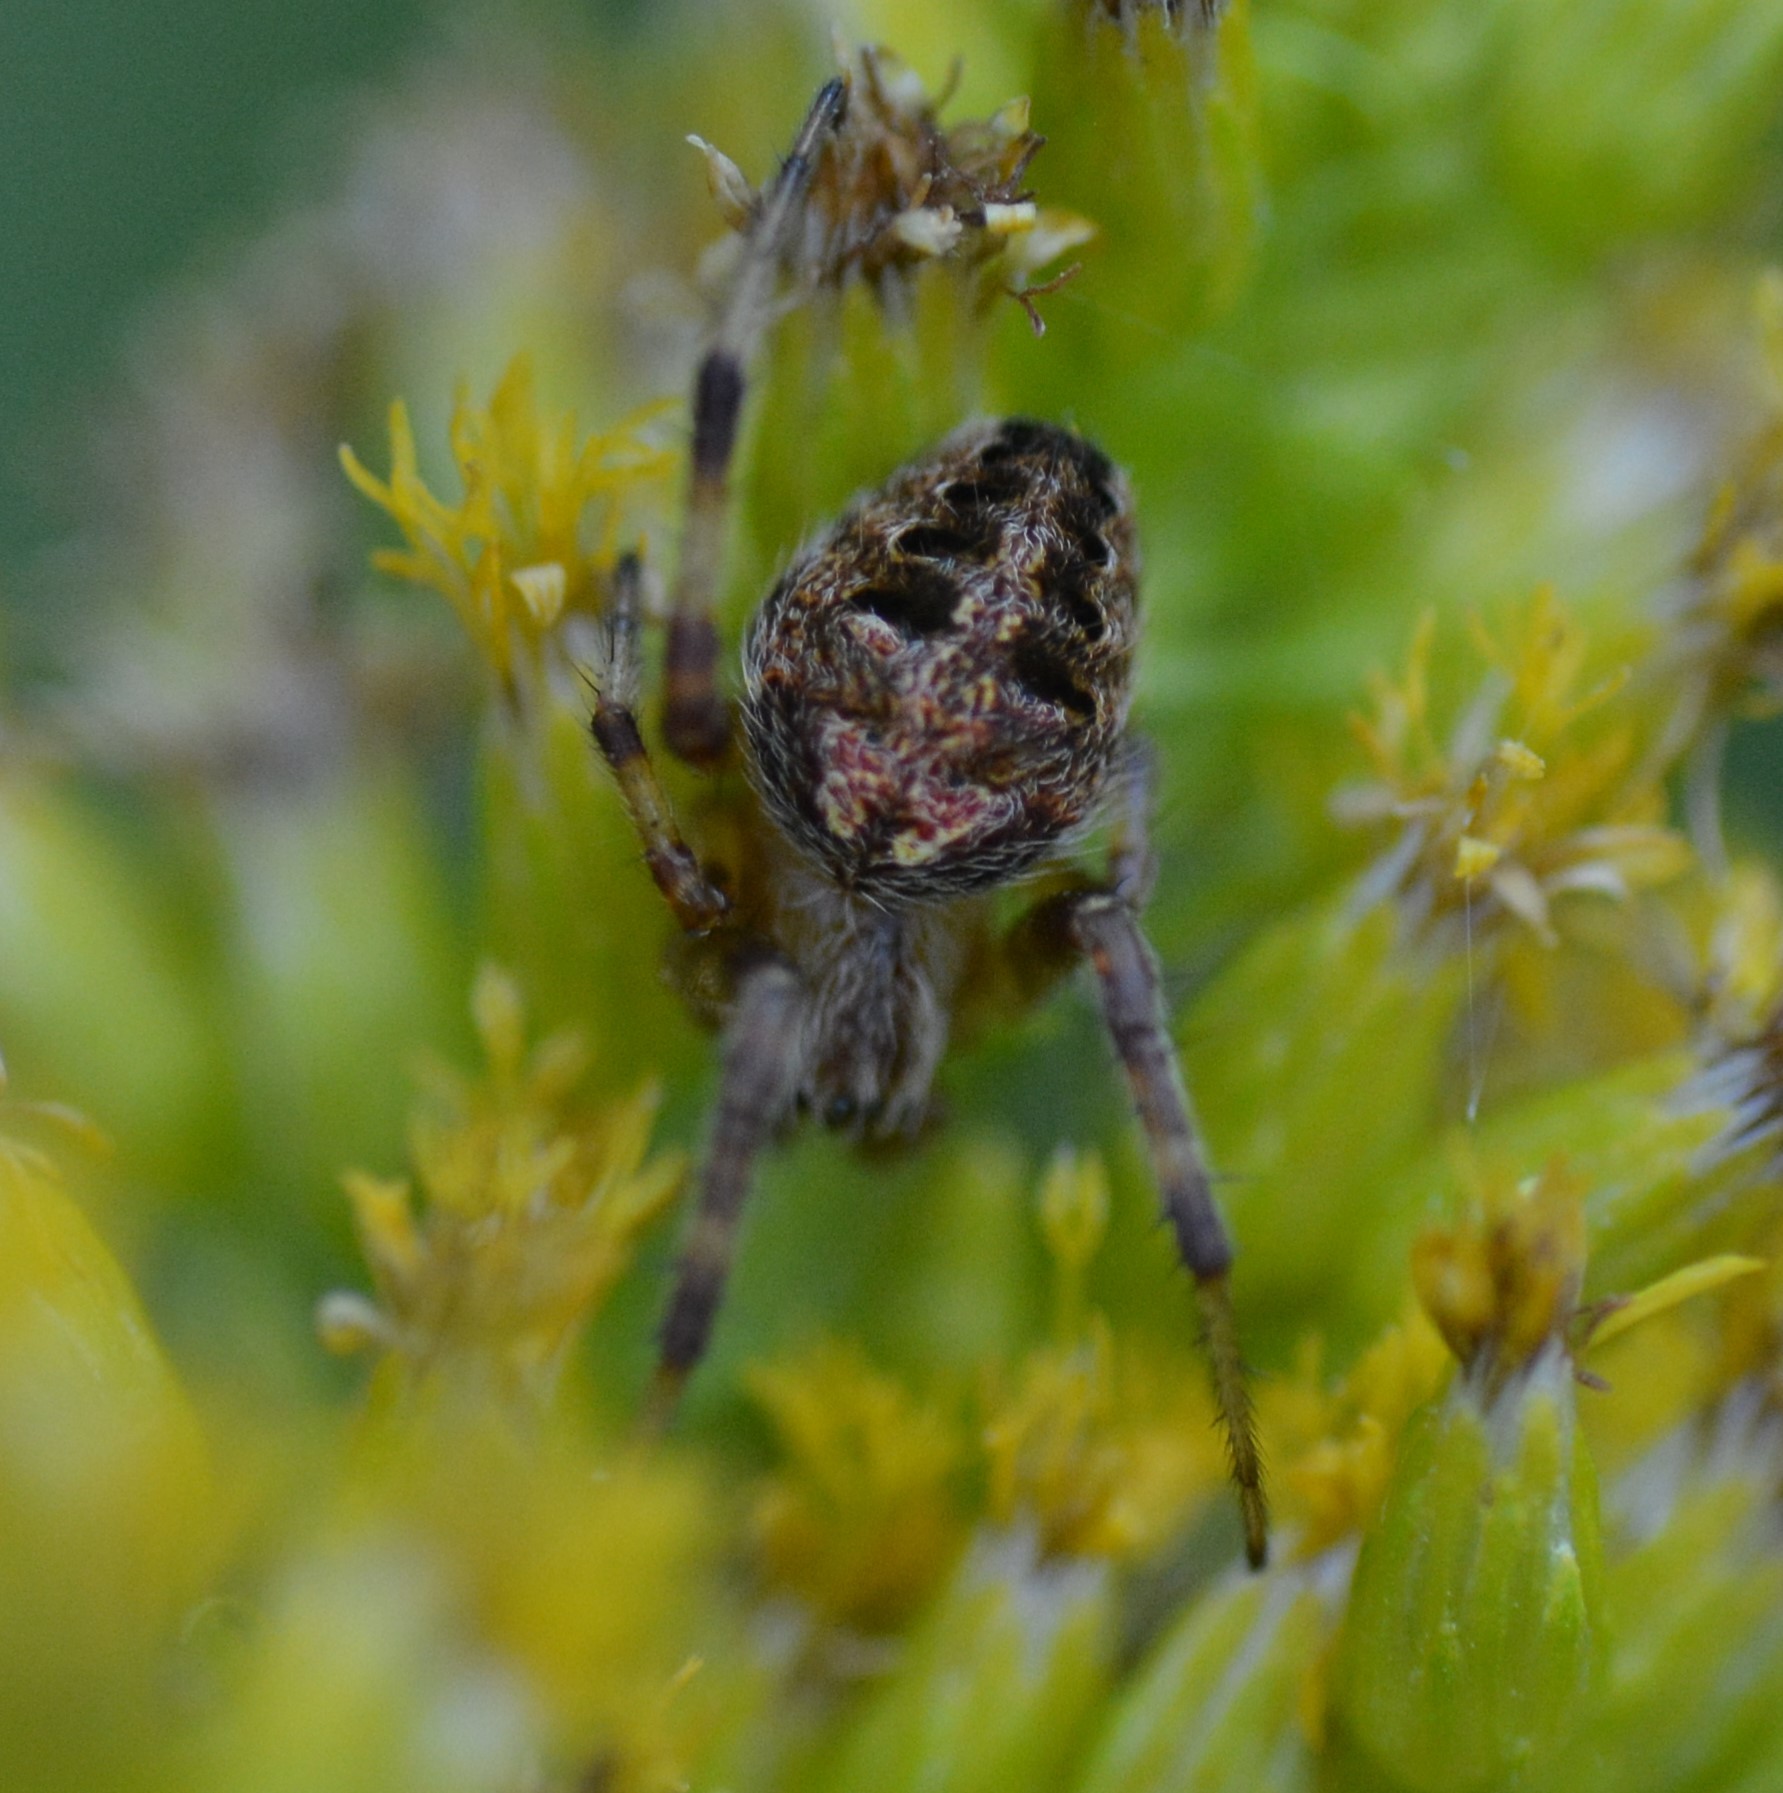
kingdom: Animalia
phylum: Arthropoda
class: Arachnida
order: Araneae
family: Araneidae
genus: Neoscona
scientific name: Neoscona arabesca
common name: Orb weavers
